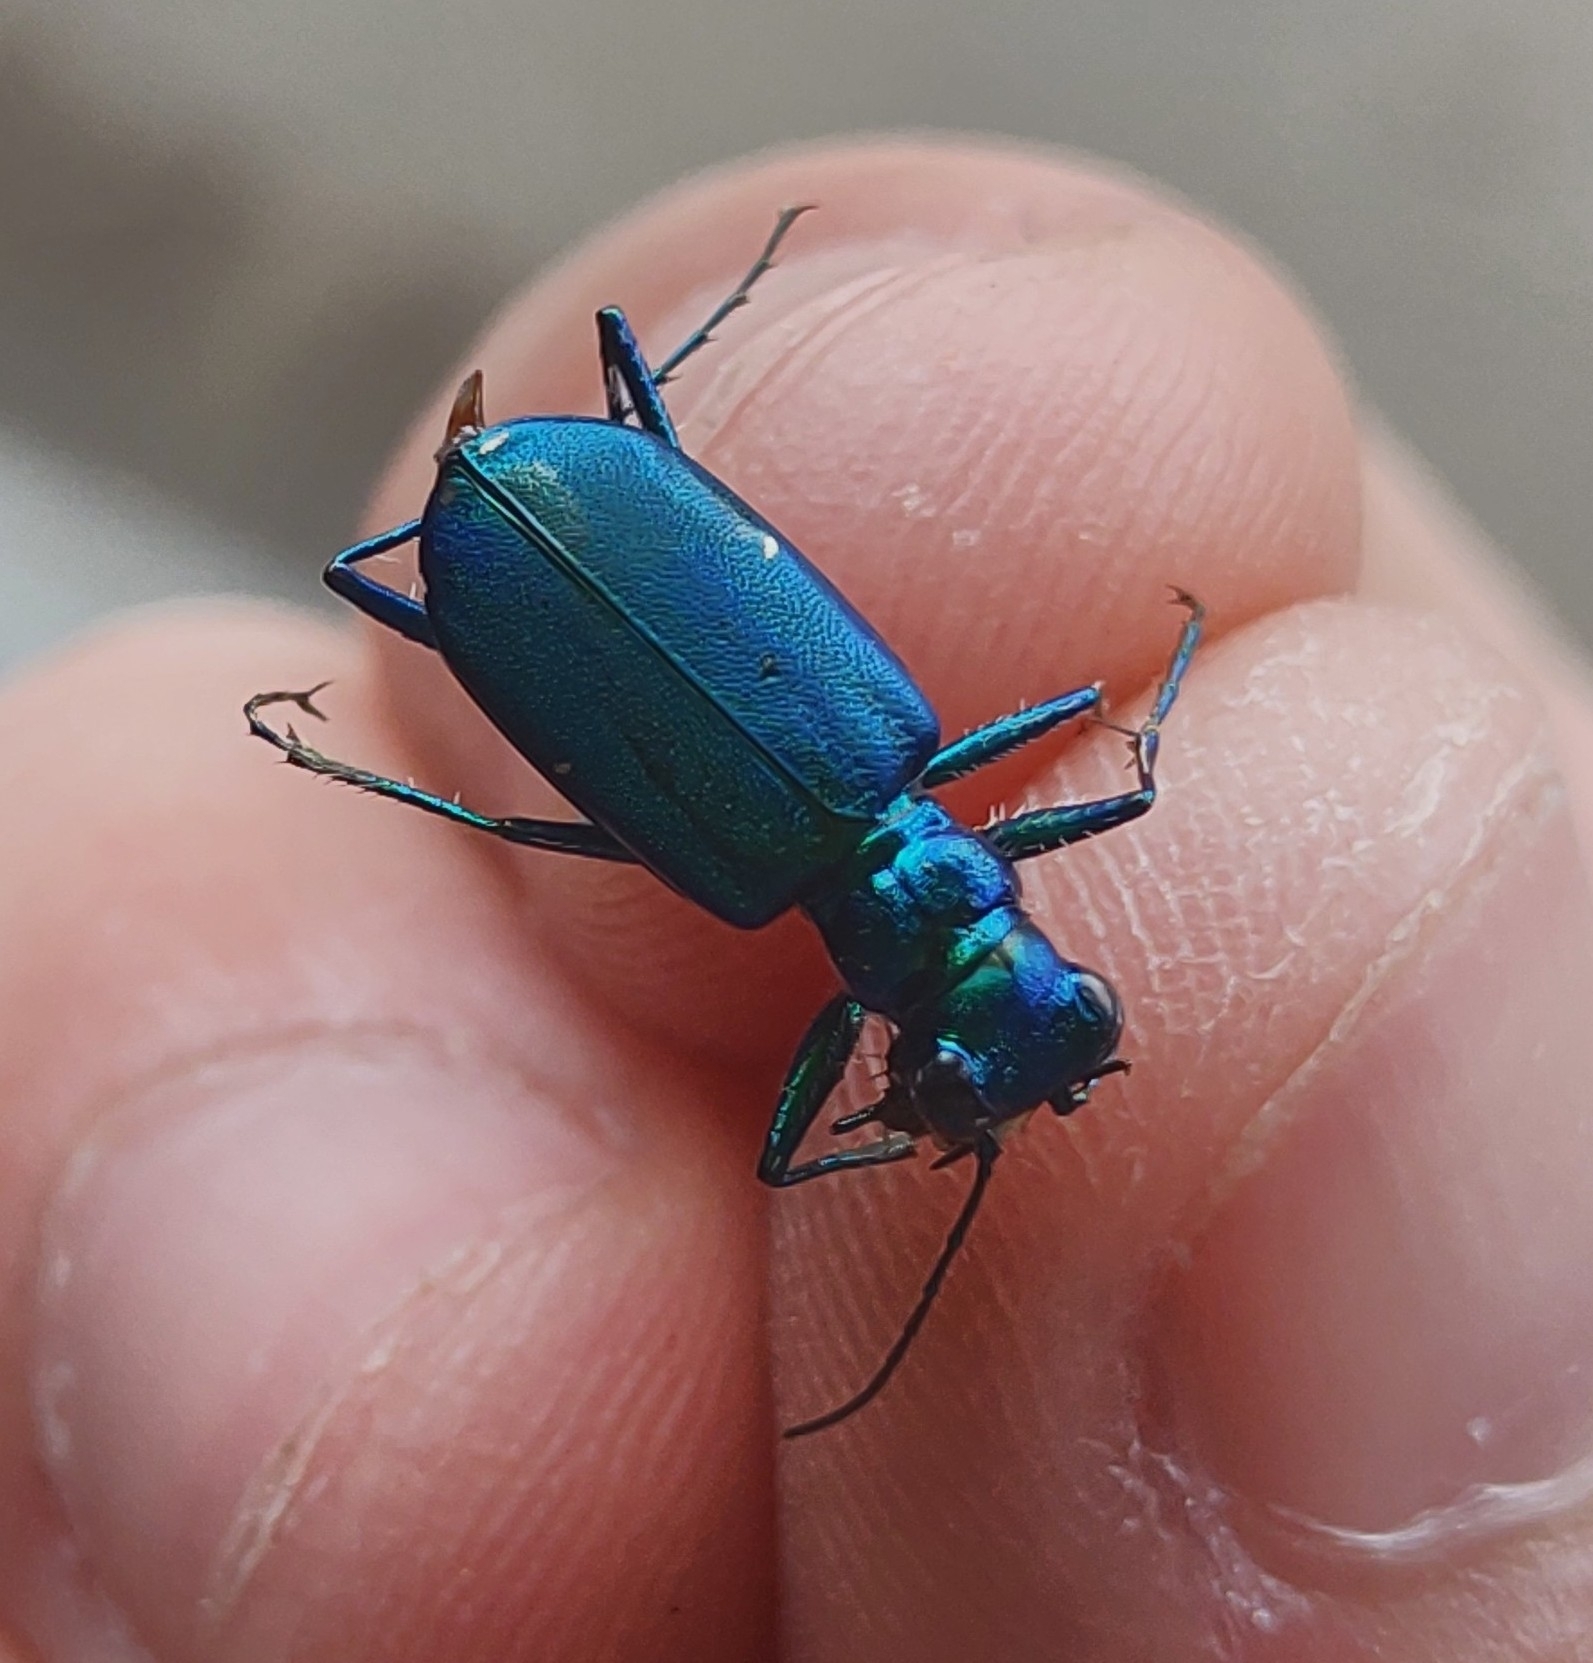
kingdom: Animalia
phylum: Arthropoda
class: Insecta
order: Coleoptera
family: Carabidae
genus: Cicindela
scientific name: Cicindela sexguttata
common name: Six-spotted tiger beetle
